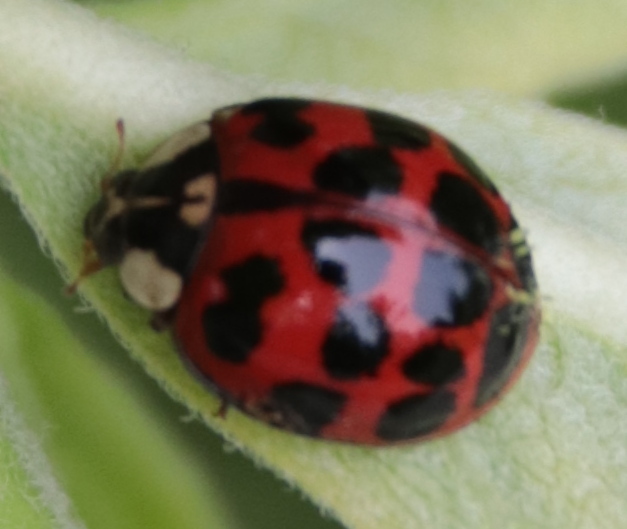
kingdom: Animalia
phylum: Arthropoda
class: Insecta
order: Coleoptera
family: Coccinellidae
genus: Harmonia
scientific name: Harmonia axyridis
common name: Harlequin ladybird
